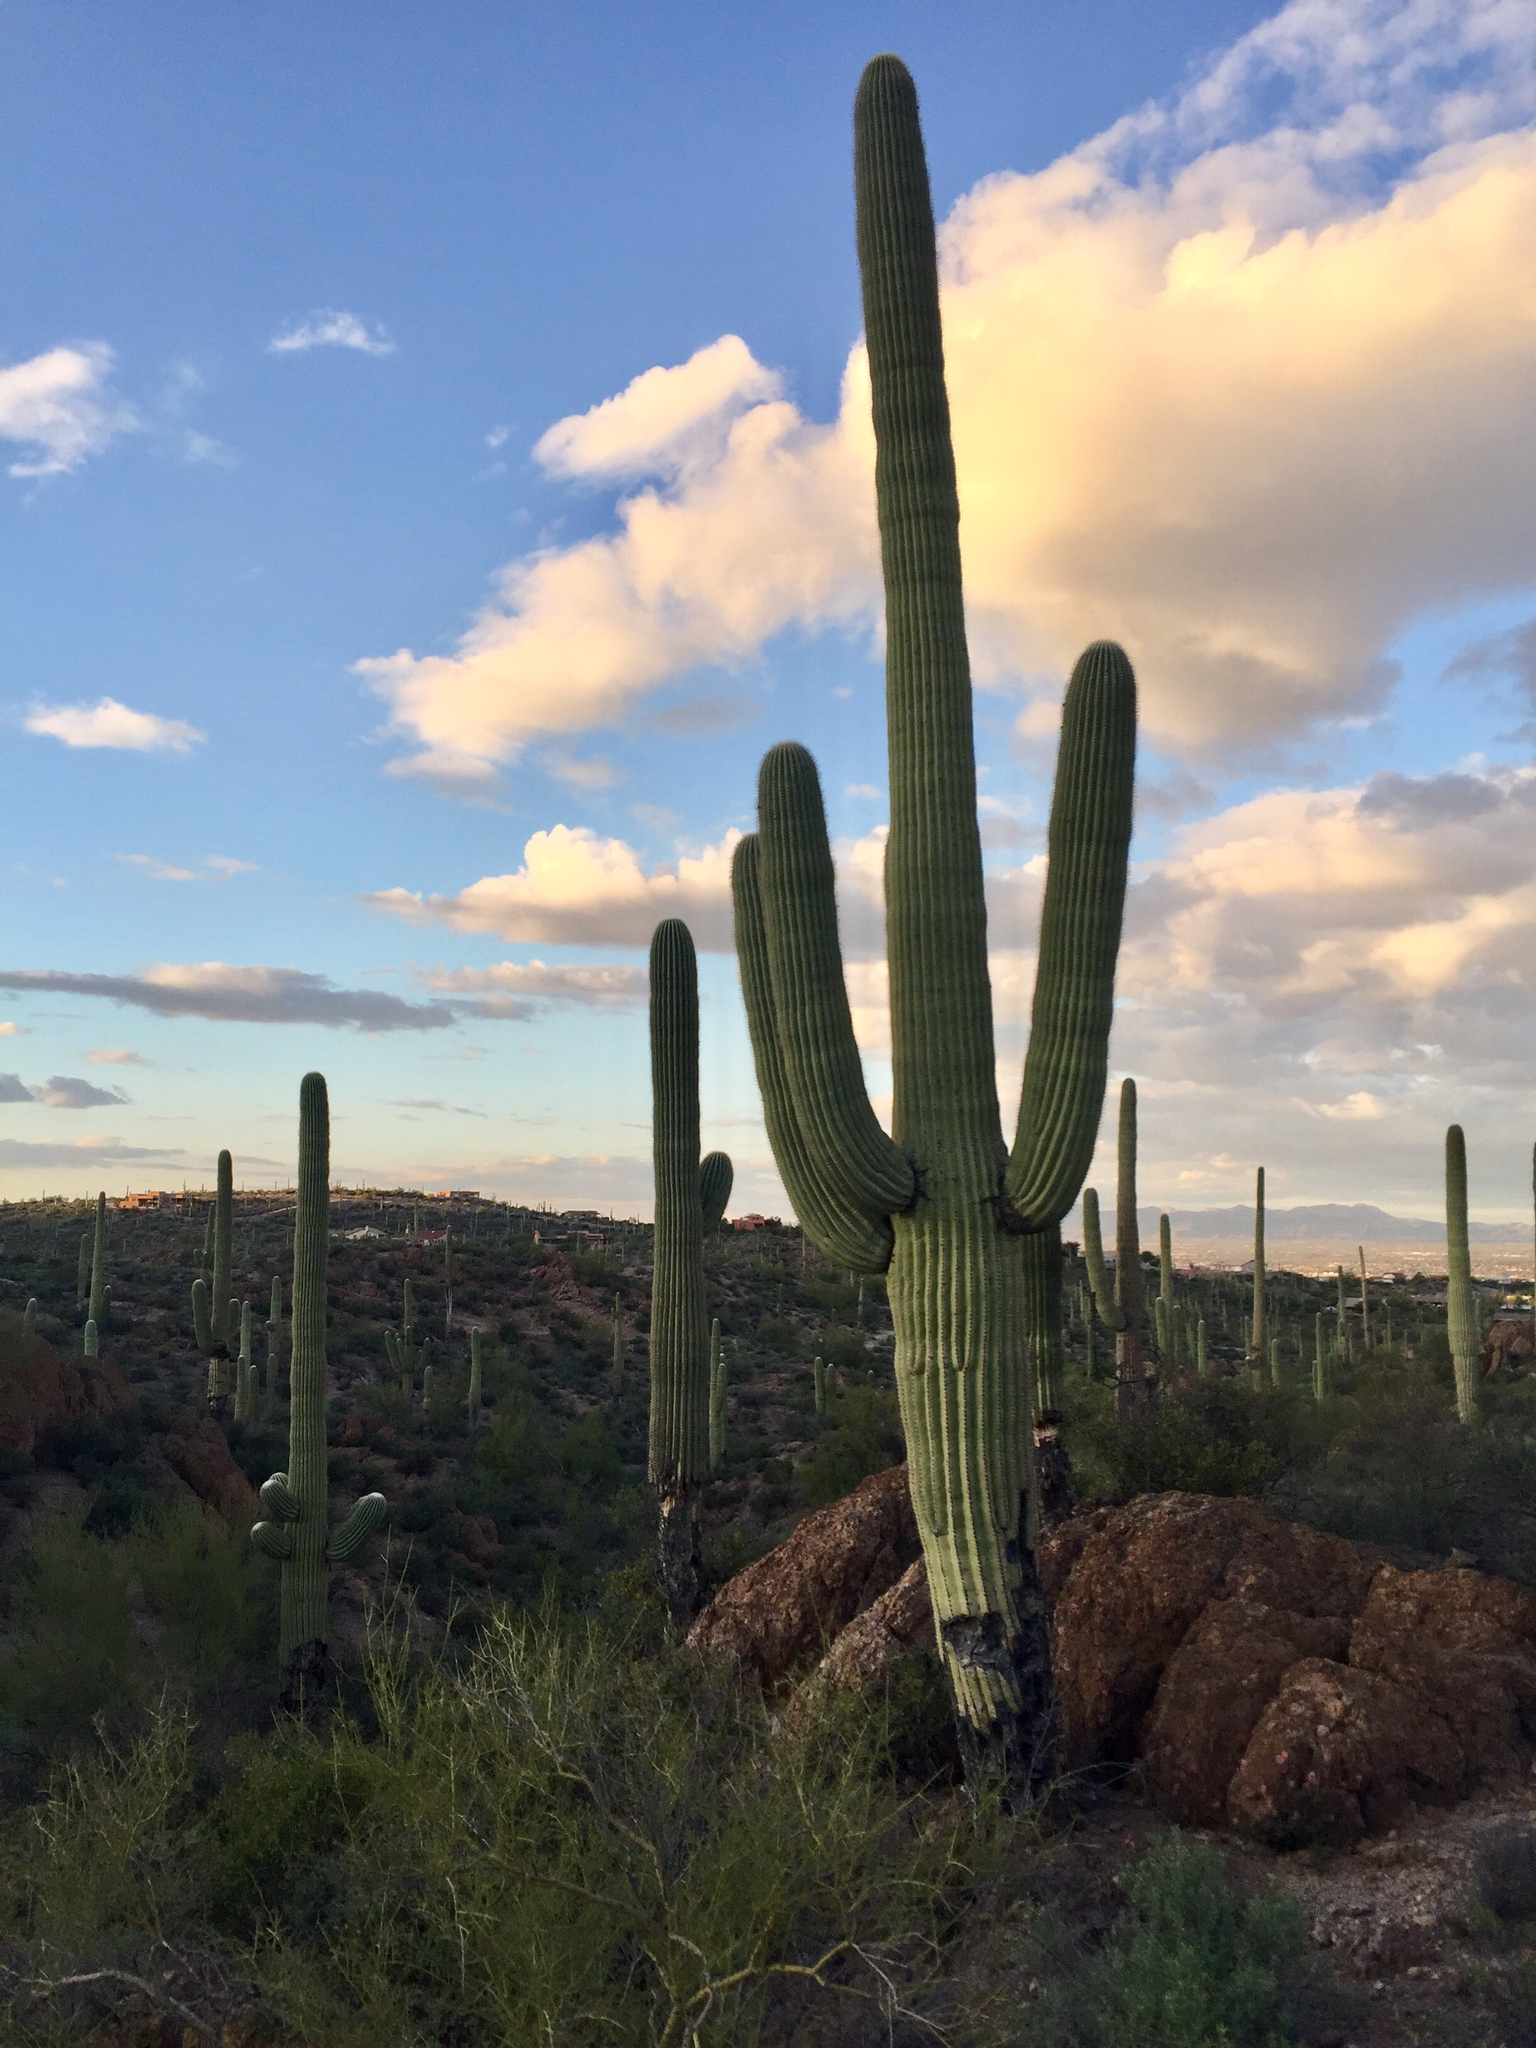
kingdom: Plantae
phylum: Tracheophyta
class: Magnoliopsida
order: Caryophyllales
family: Cactaceae
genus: Carnegiea
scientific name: Carnegiea gigantea
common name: Saguaro
